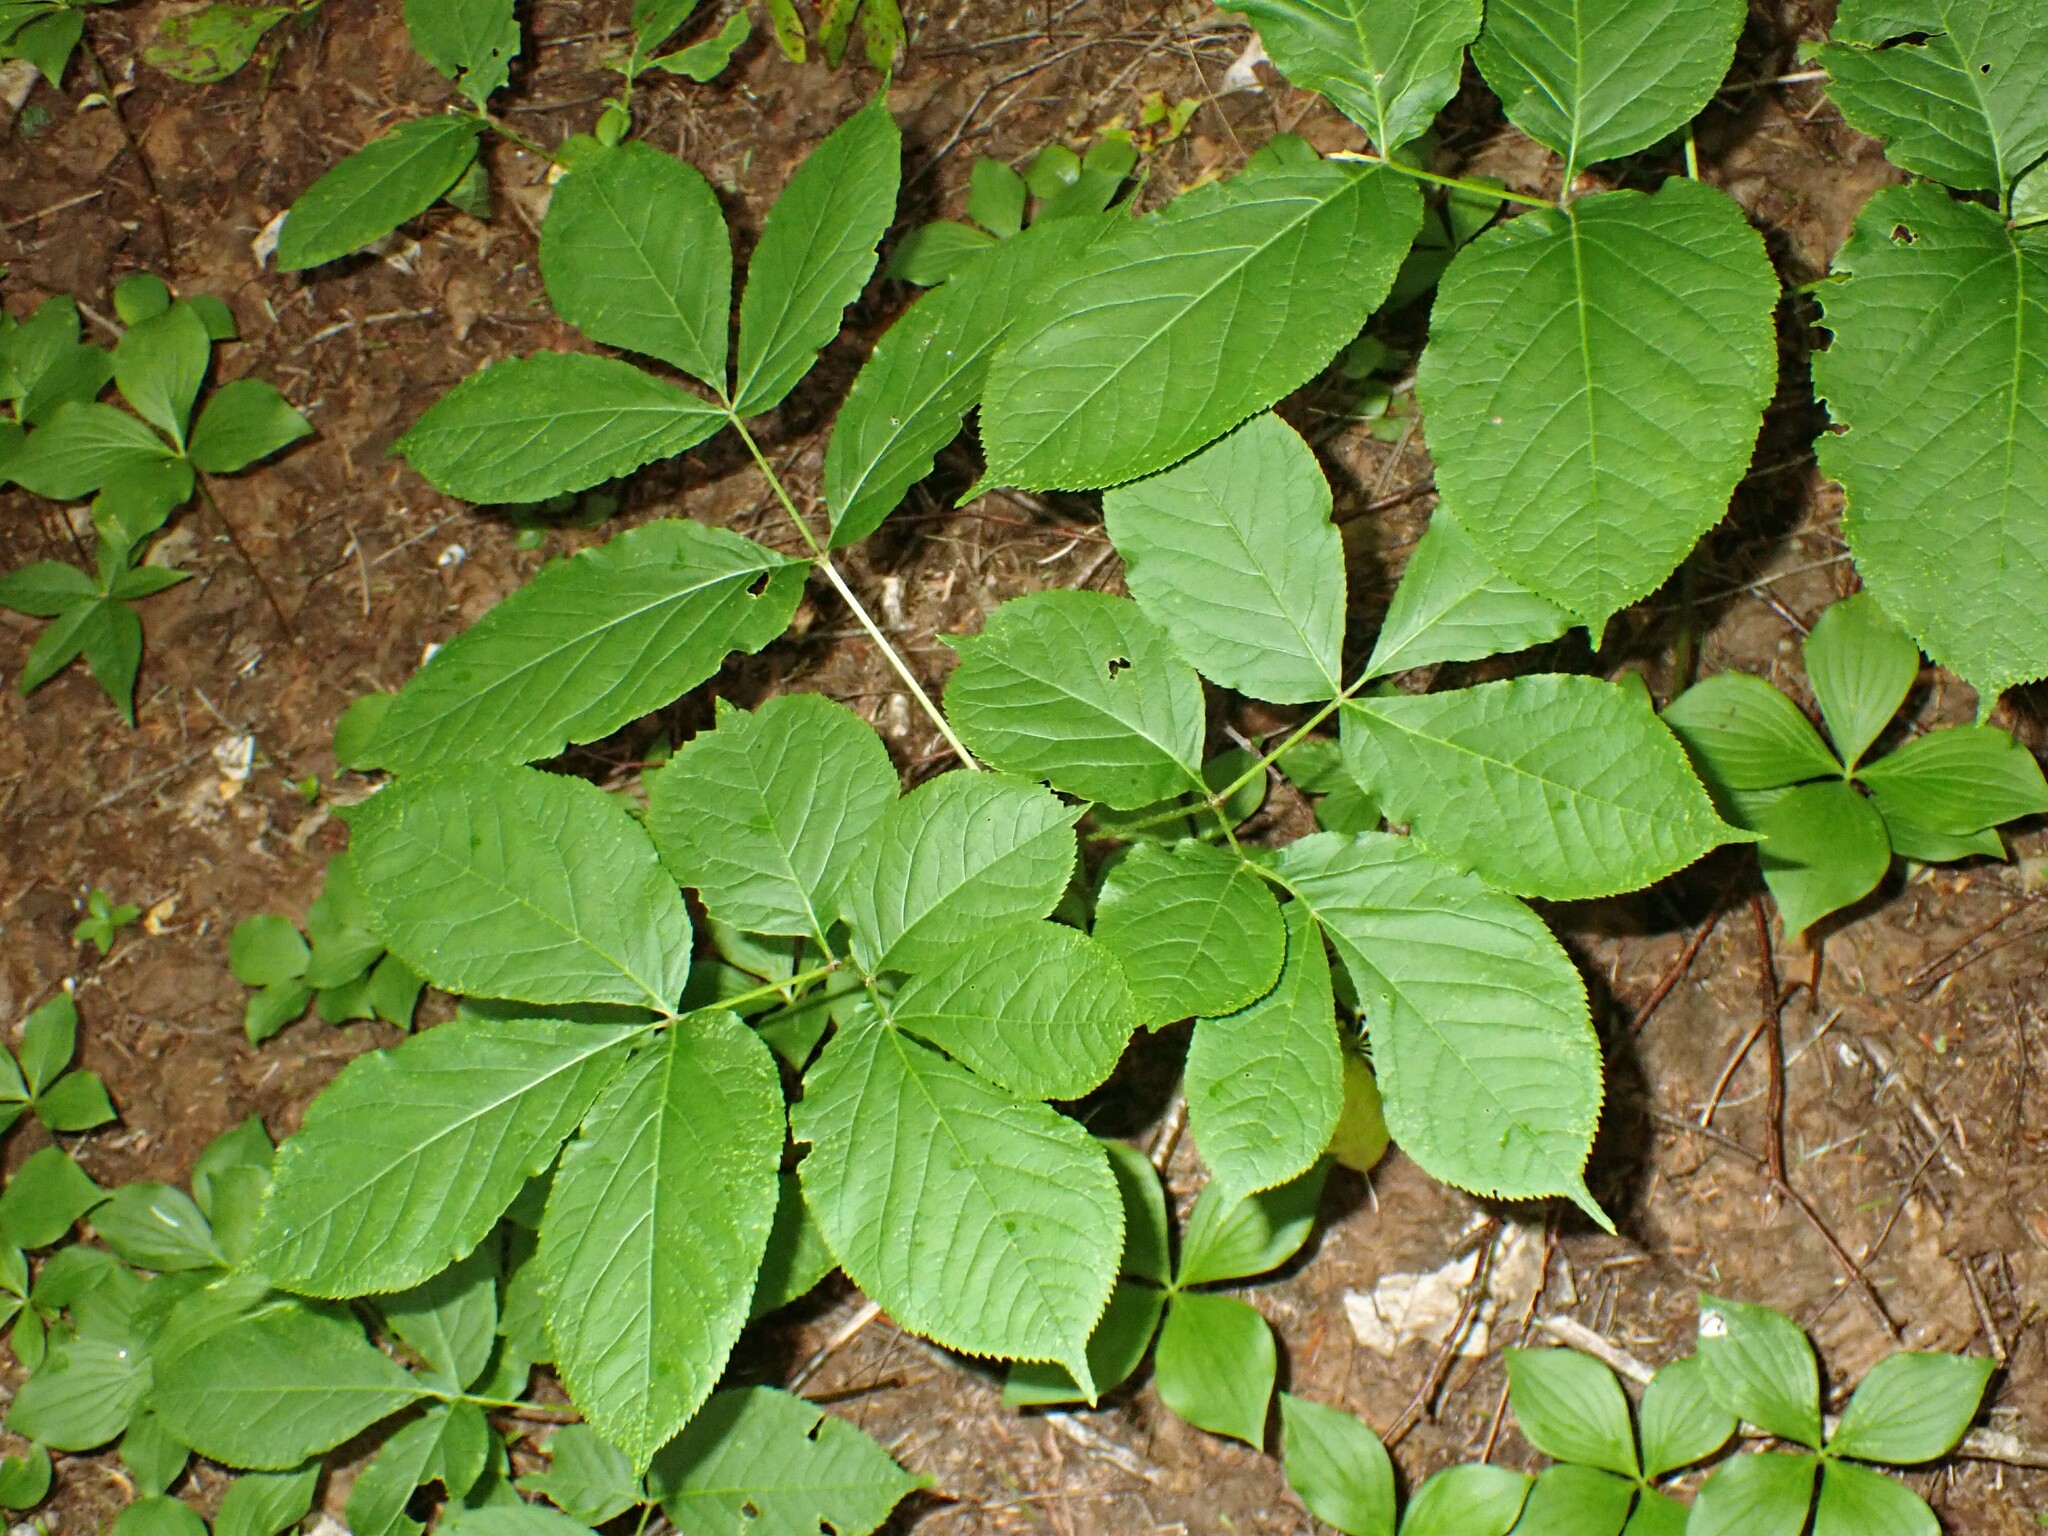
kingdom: Plantae
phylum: Tracheophyta
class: Magnoliopsida
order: Apiales
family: Araliaceae
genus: Aralia
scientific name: Aralia nudicaulis
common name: Wild sarsaparilla
